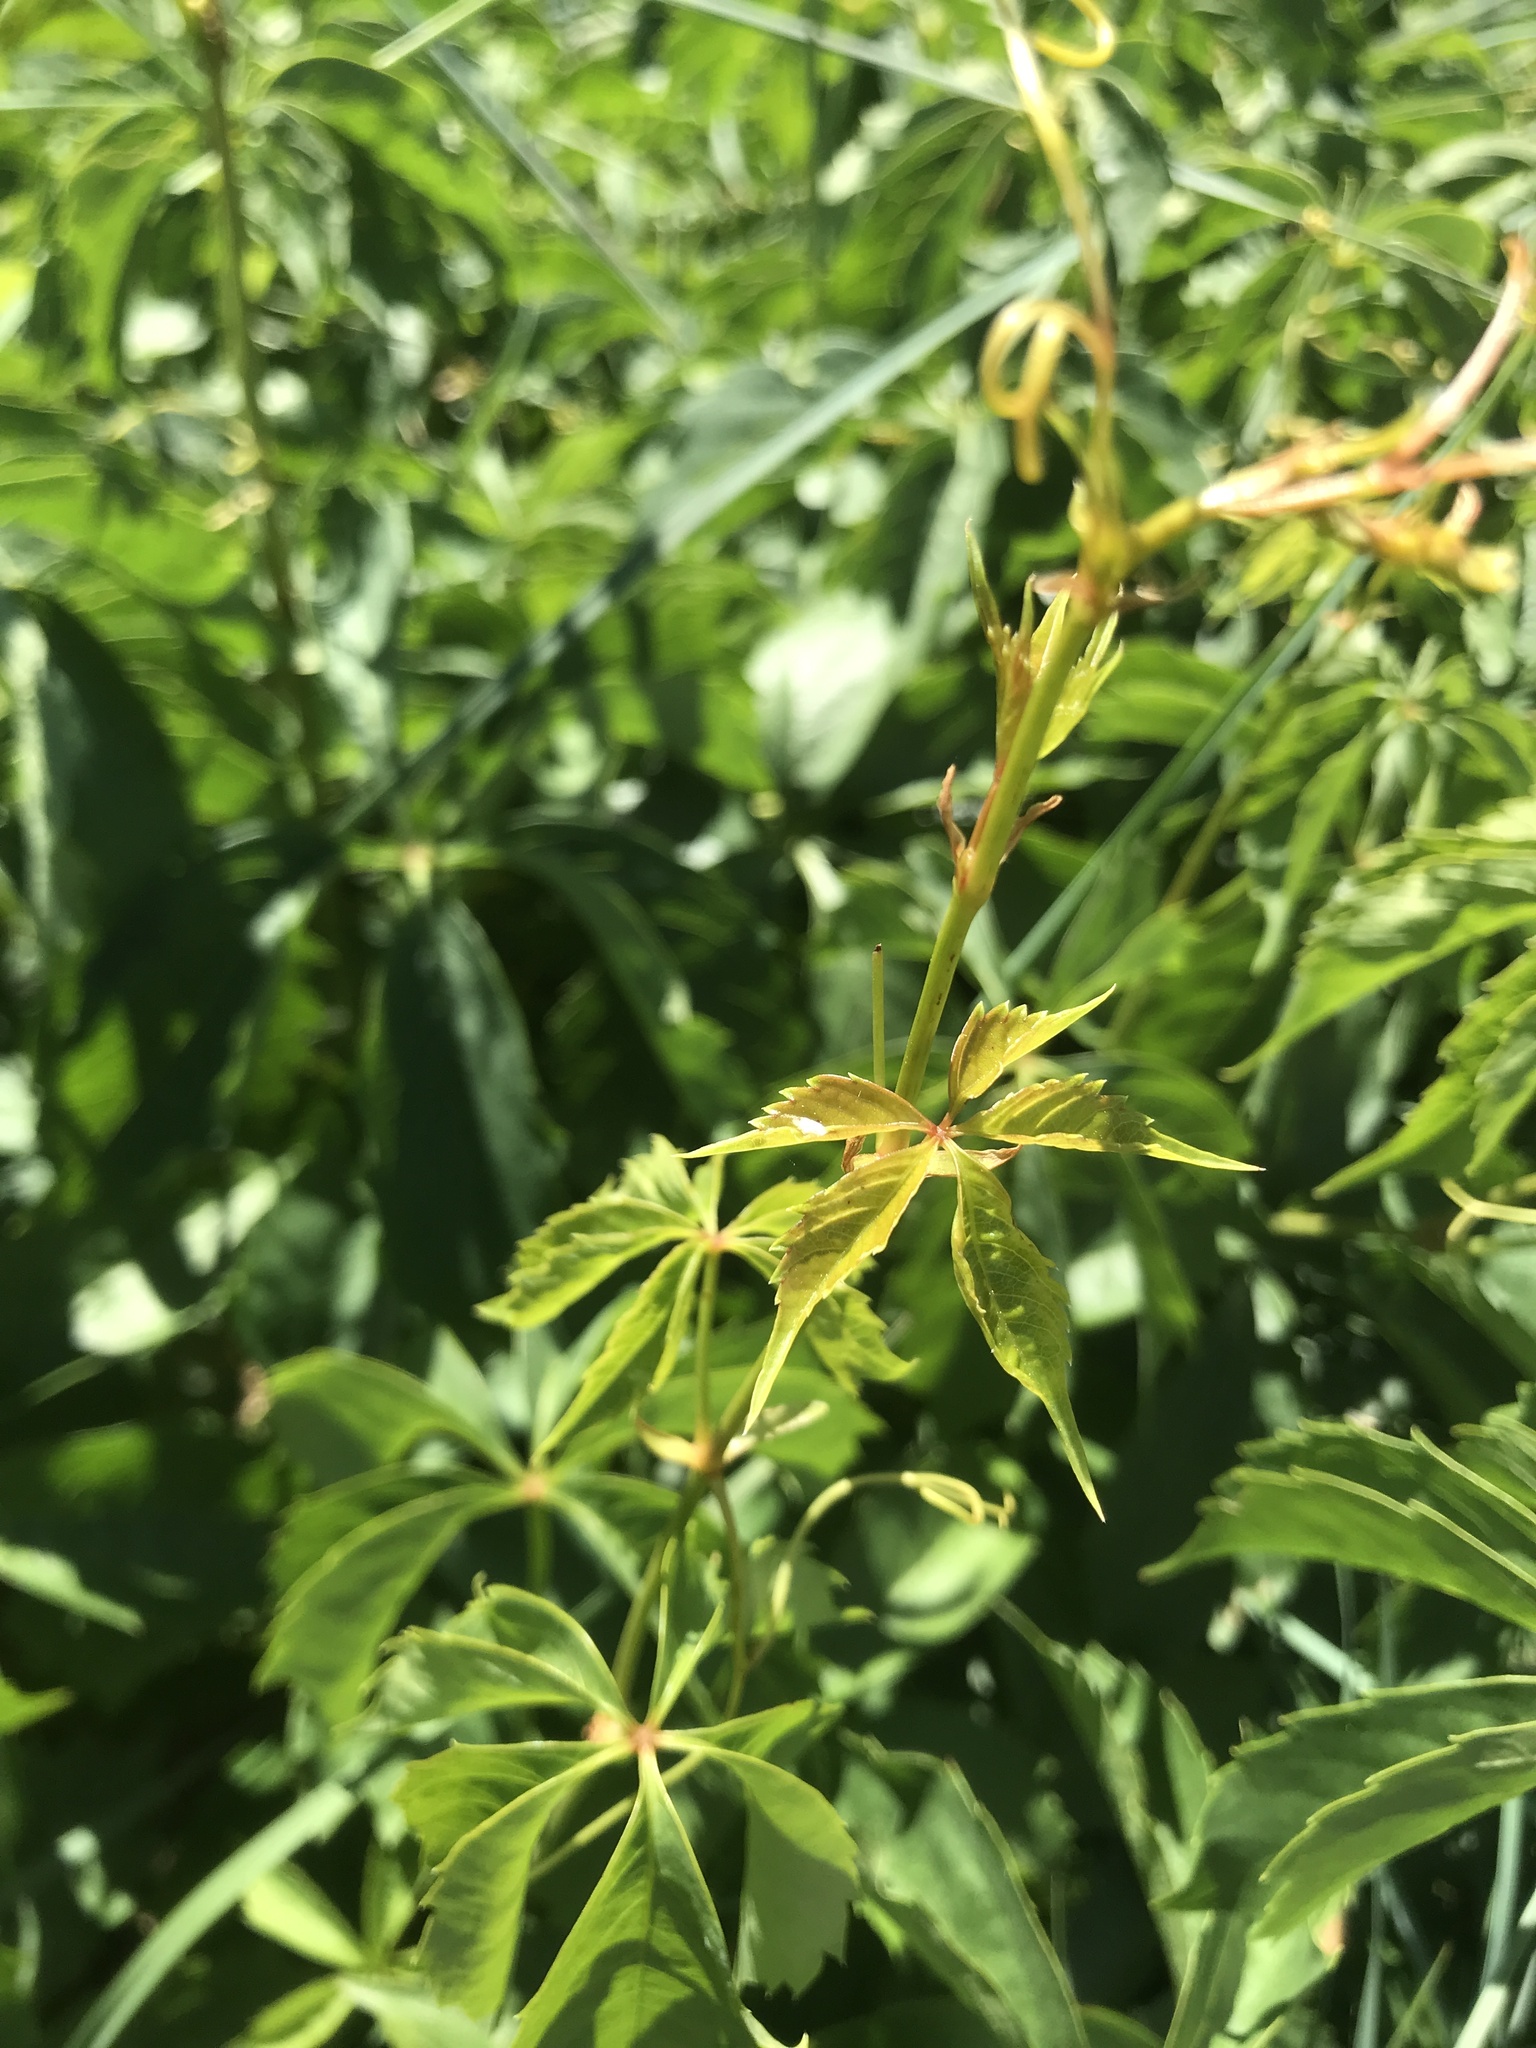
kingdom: Plantae
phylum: Tracheophyta
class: Magnoliopsida
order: Vitales
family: Vitaceae
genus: Parthenocissus
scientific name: Parthenocissus quinquefolia
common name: Virginia-creeper
